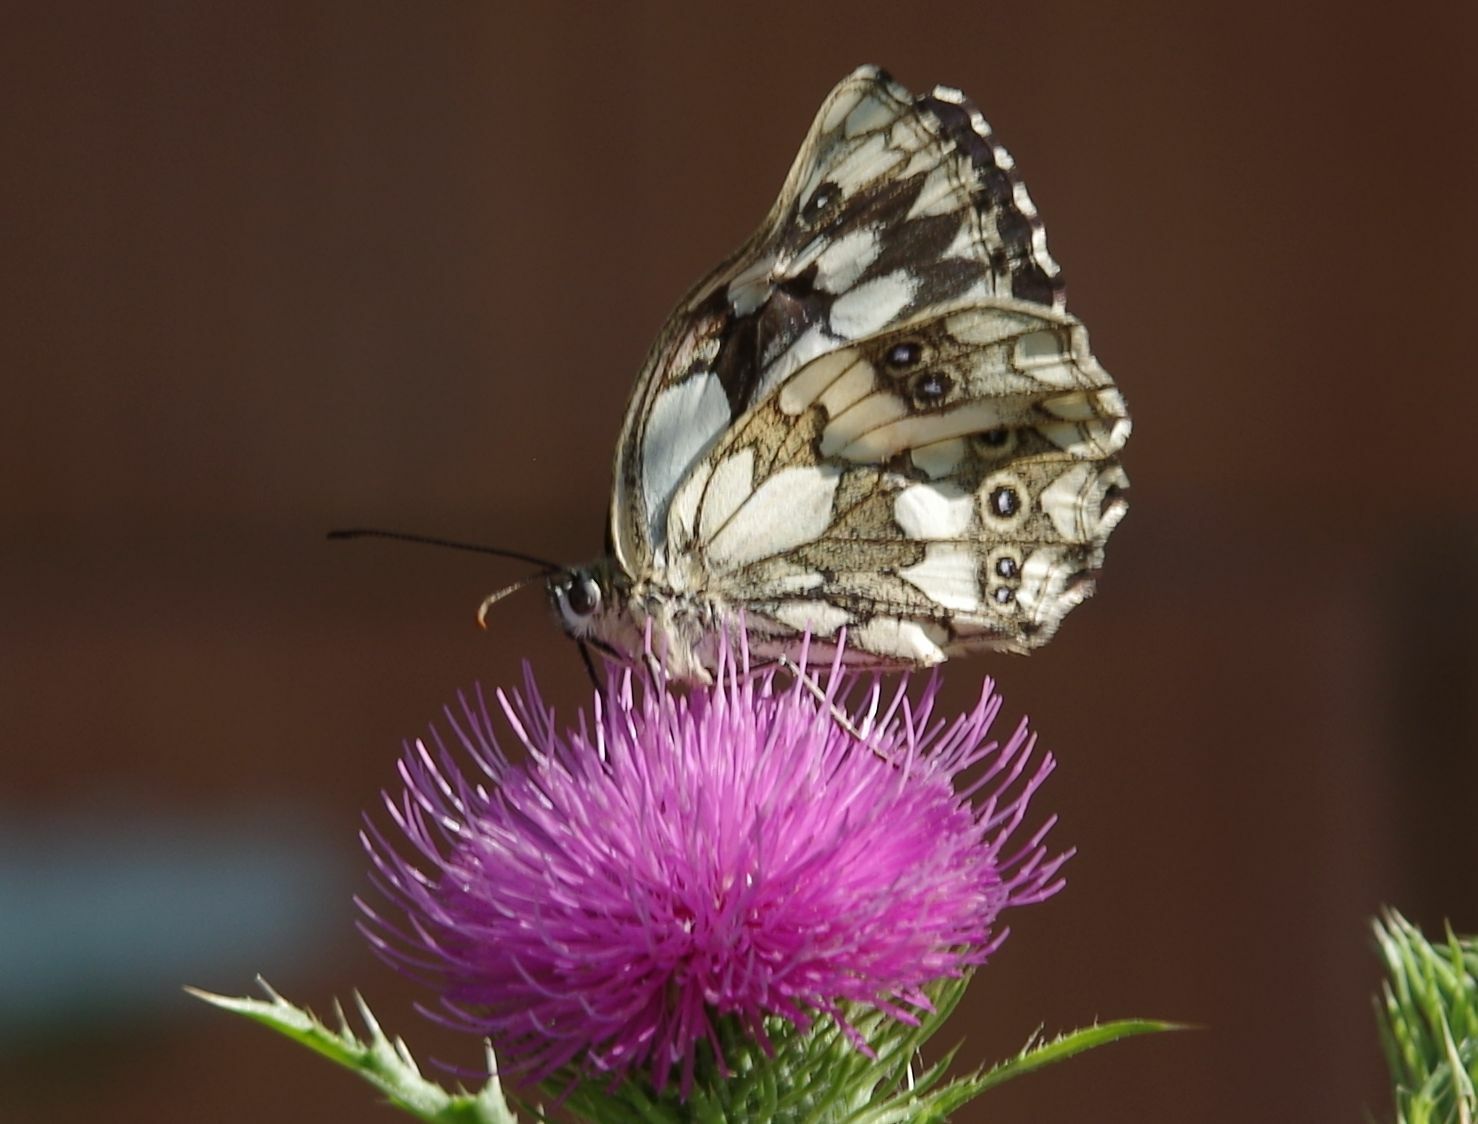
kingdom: Animalia
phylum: Arthropoda
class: Insecta
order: Lepidoptera
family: Nymphalidae
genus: Melanargia
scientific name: Melanargia galathea
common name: Marbled white
